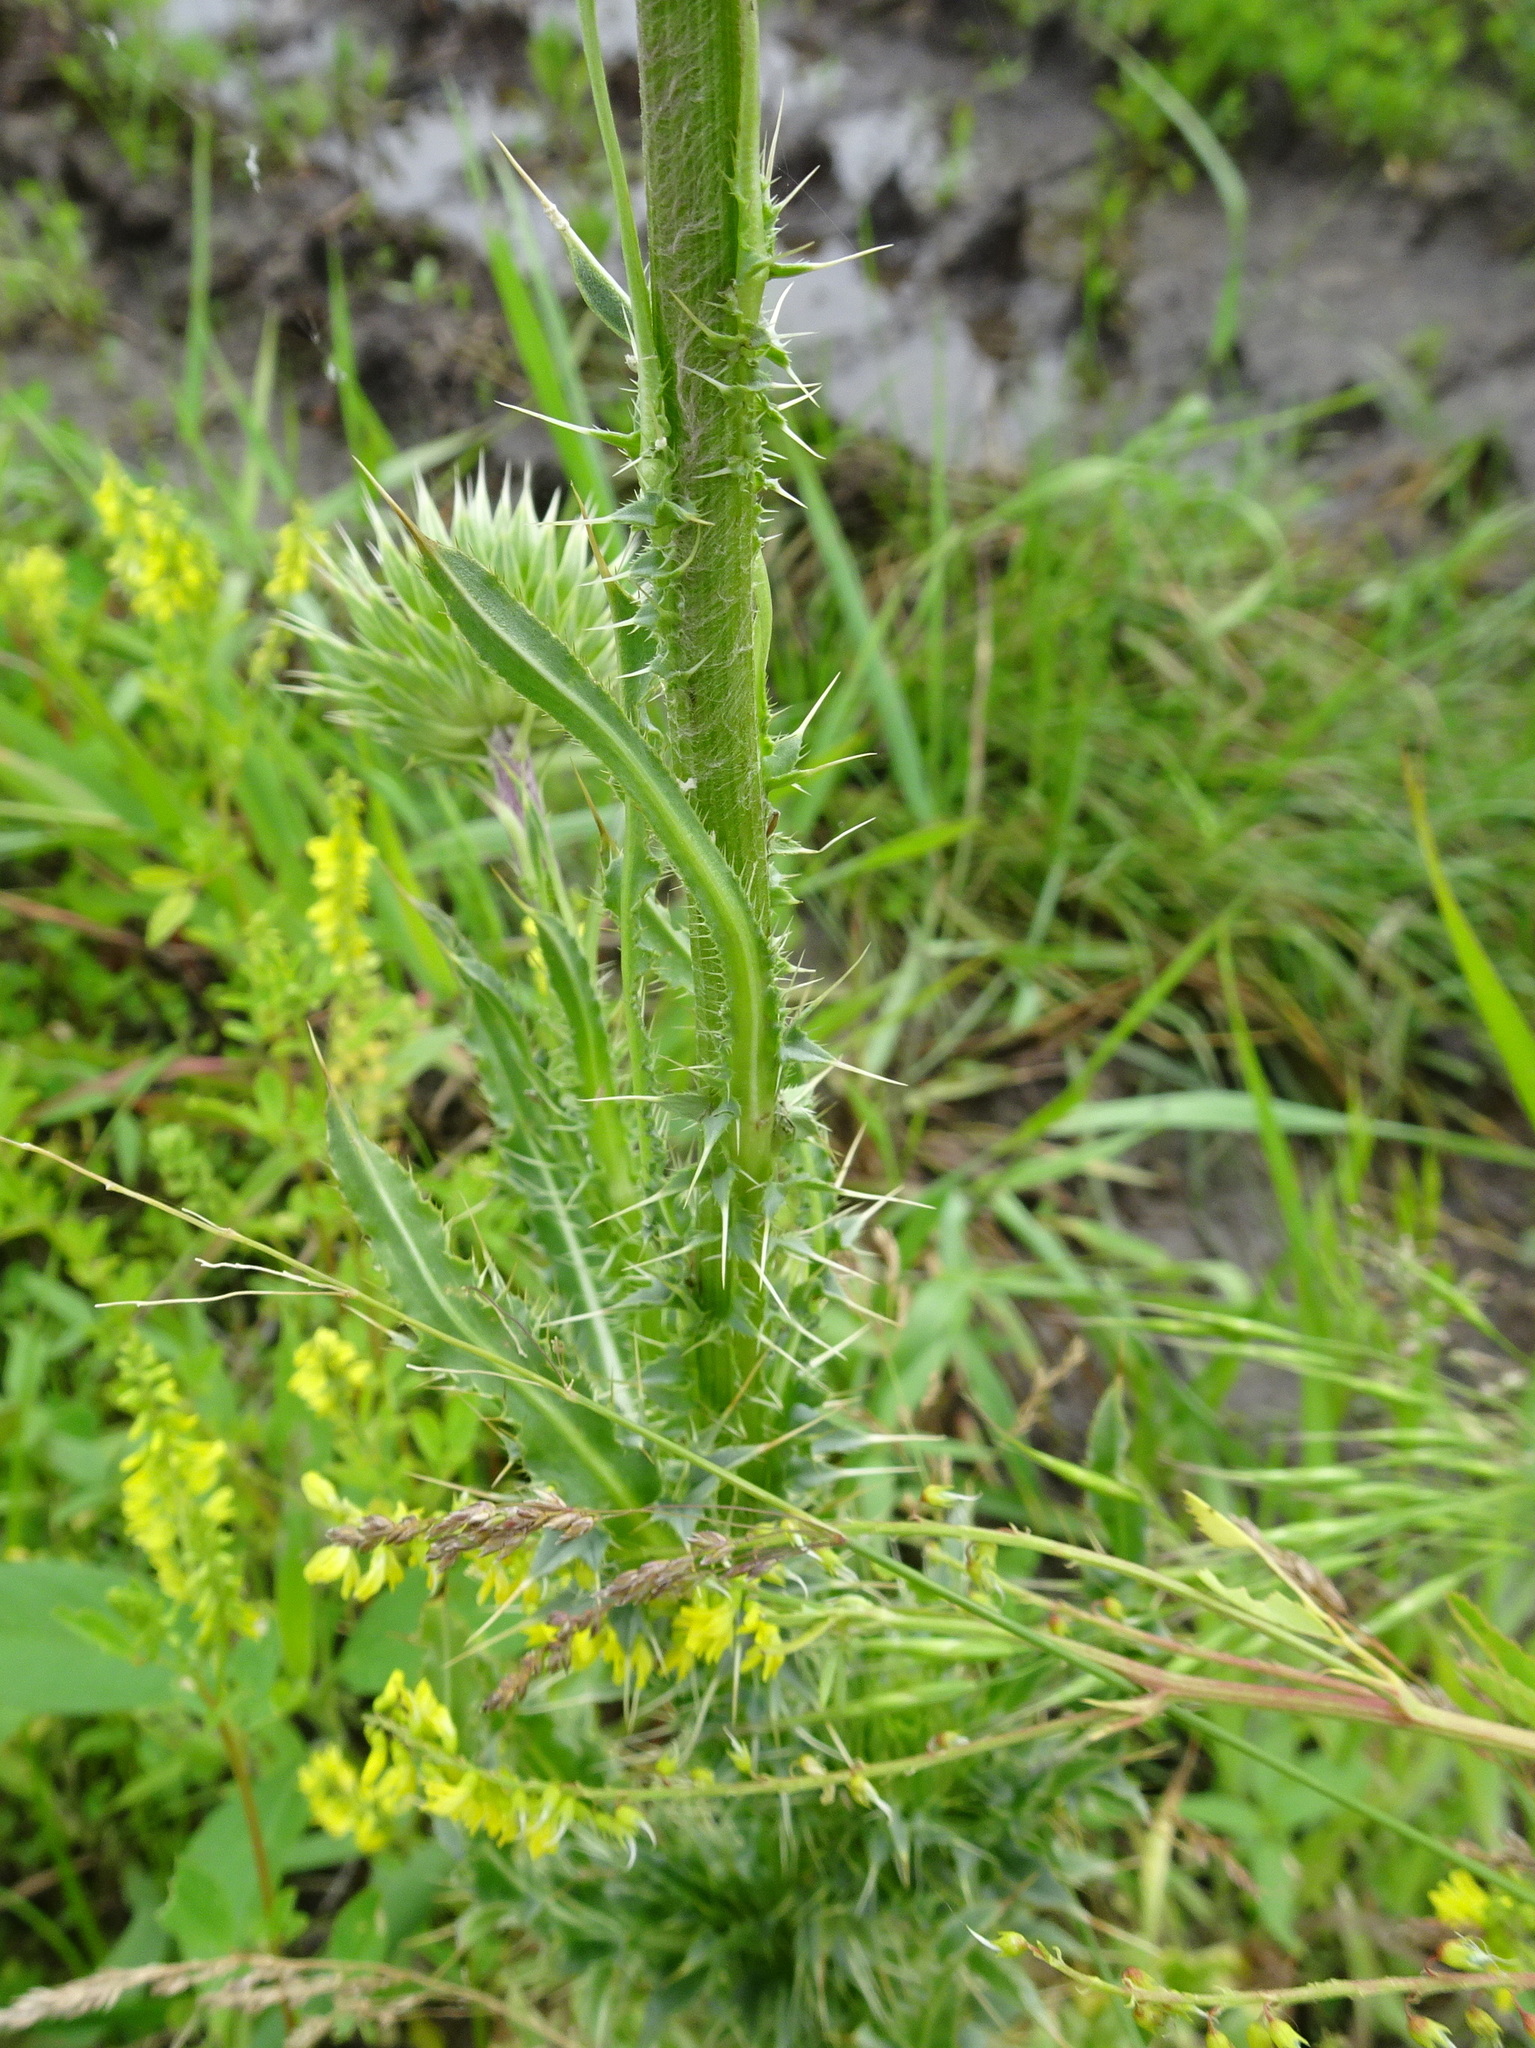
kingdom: Plantae
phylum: Tracheophyta
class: Magnoliopsida
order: Asterales
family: Asteraceae
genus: Carduus
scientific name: Carduus nutans
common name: Musk thistle
